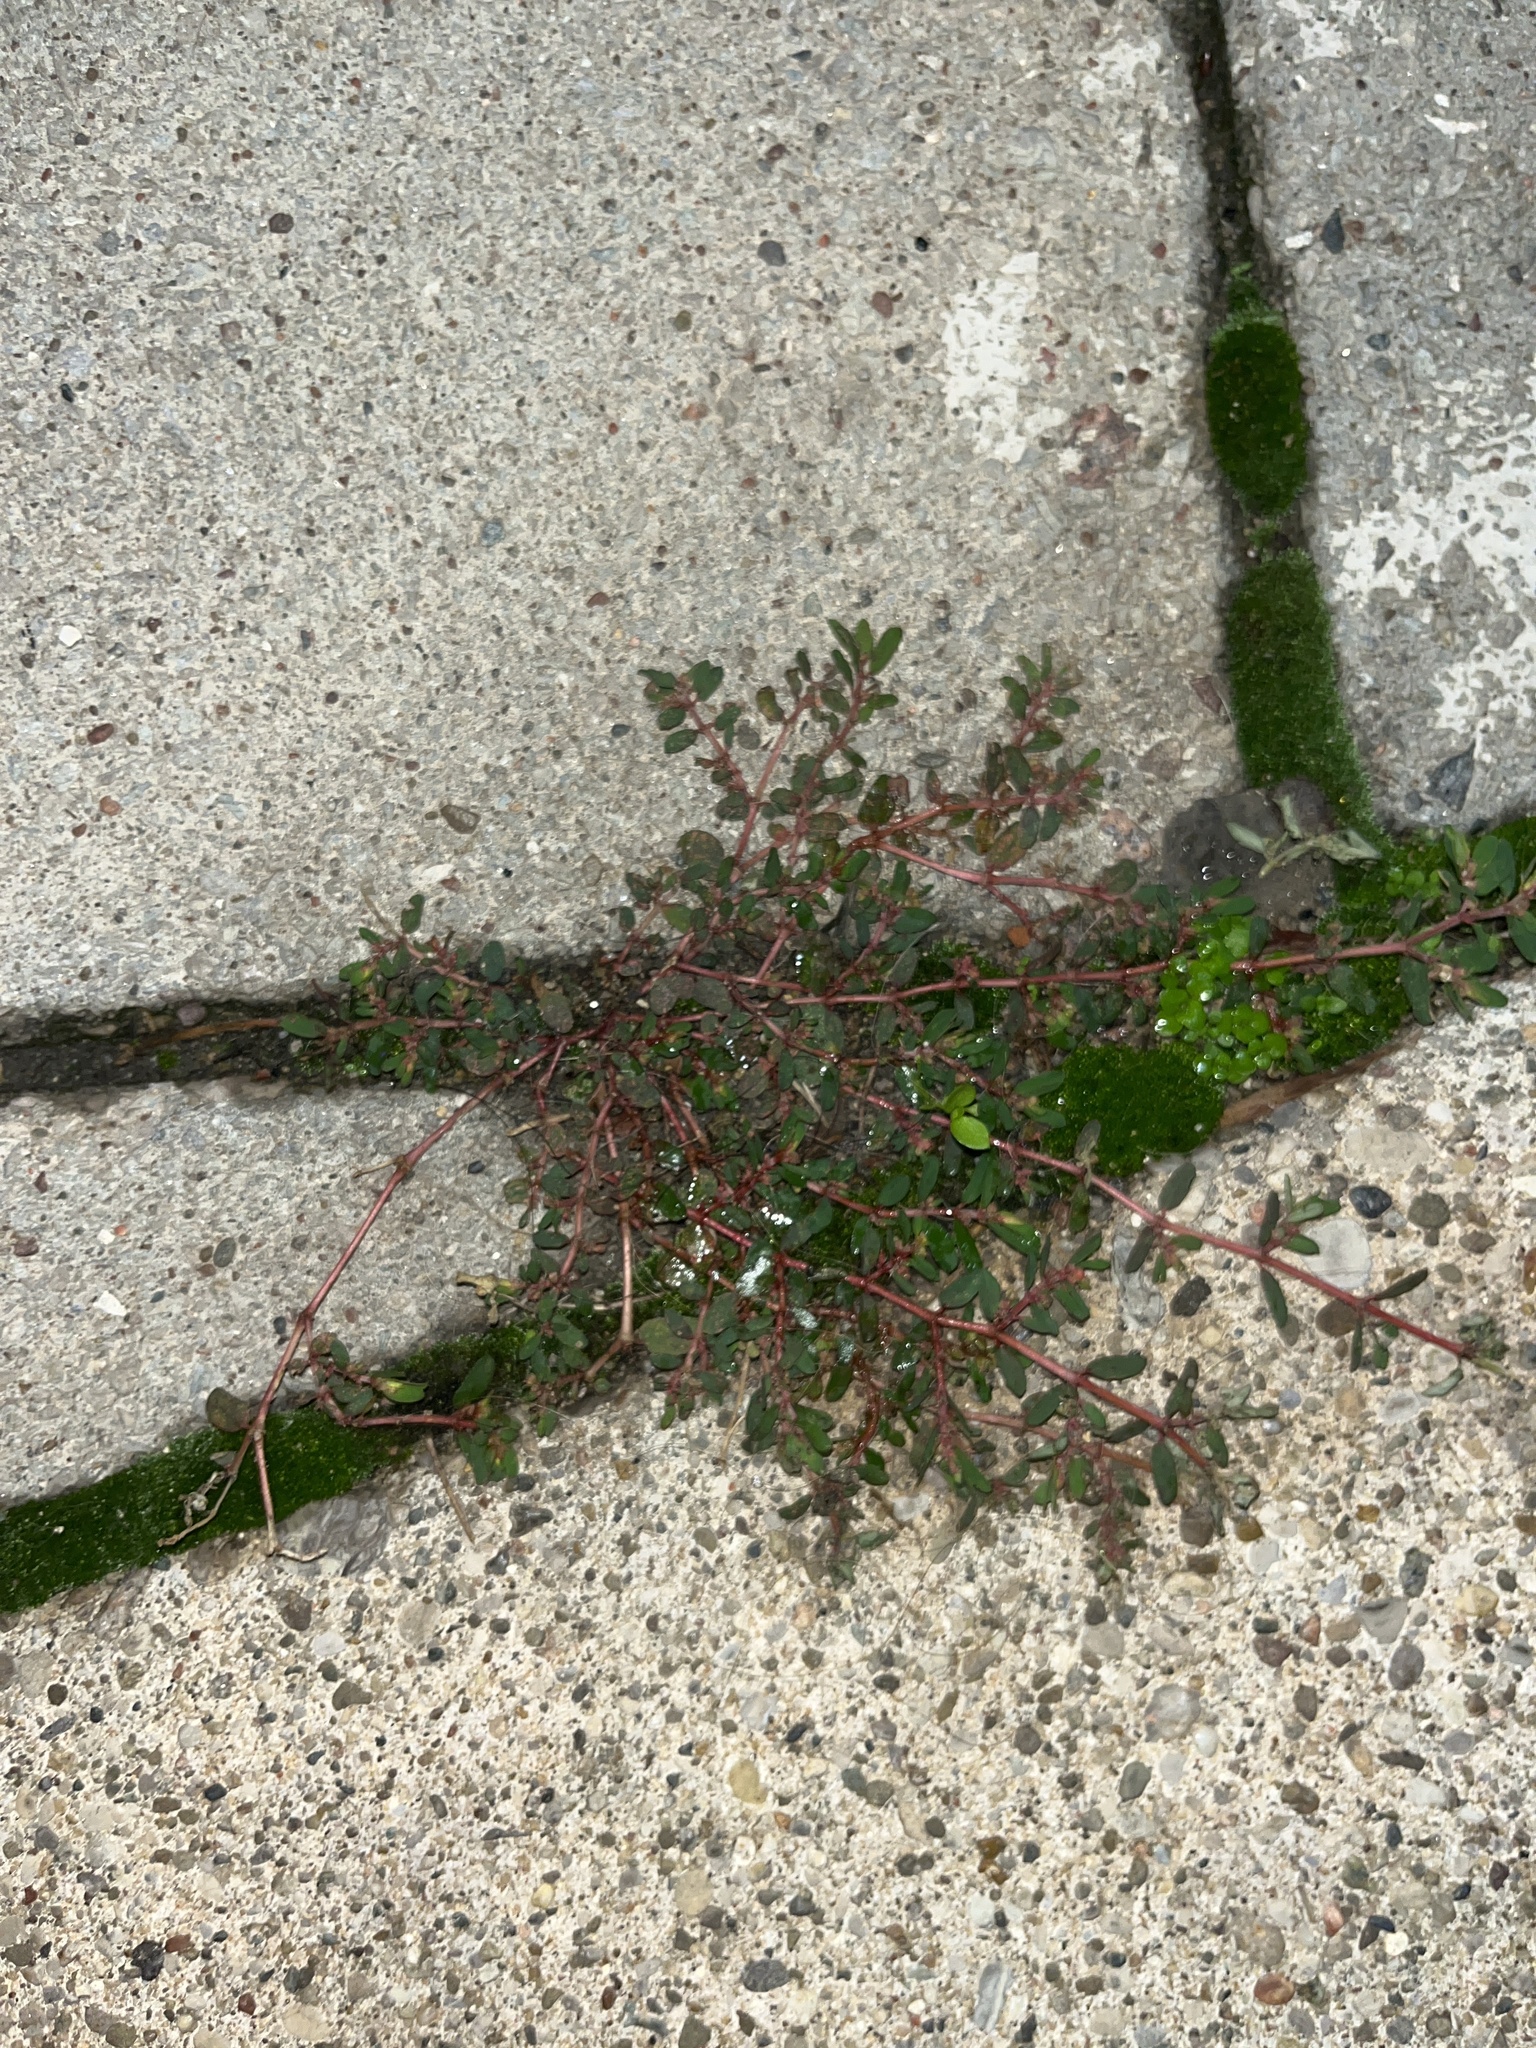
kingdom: Plantae
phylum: Tracheophyta
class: Magnoliopsida
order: Malpighiales
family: Euphorbiaceae
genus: Euphorbia
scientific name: Euphorbia maculata
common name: Spotted spurge
